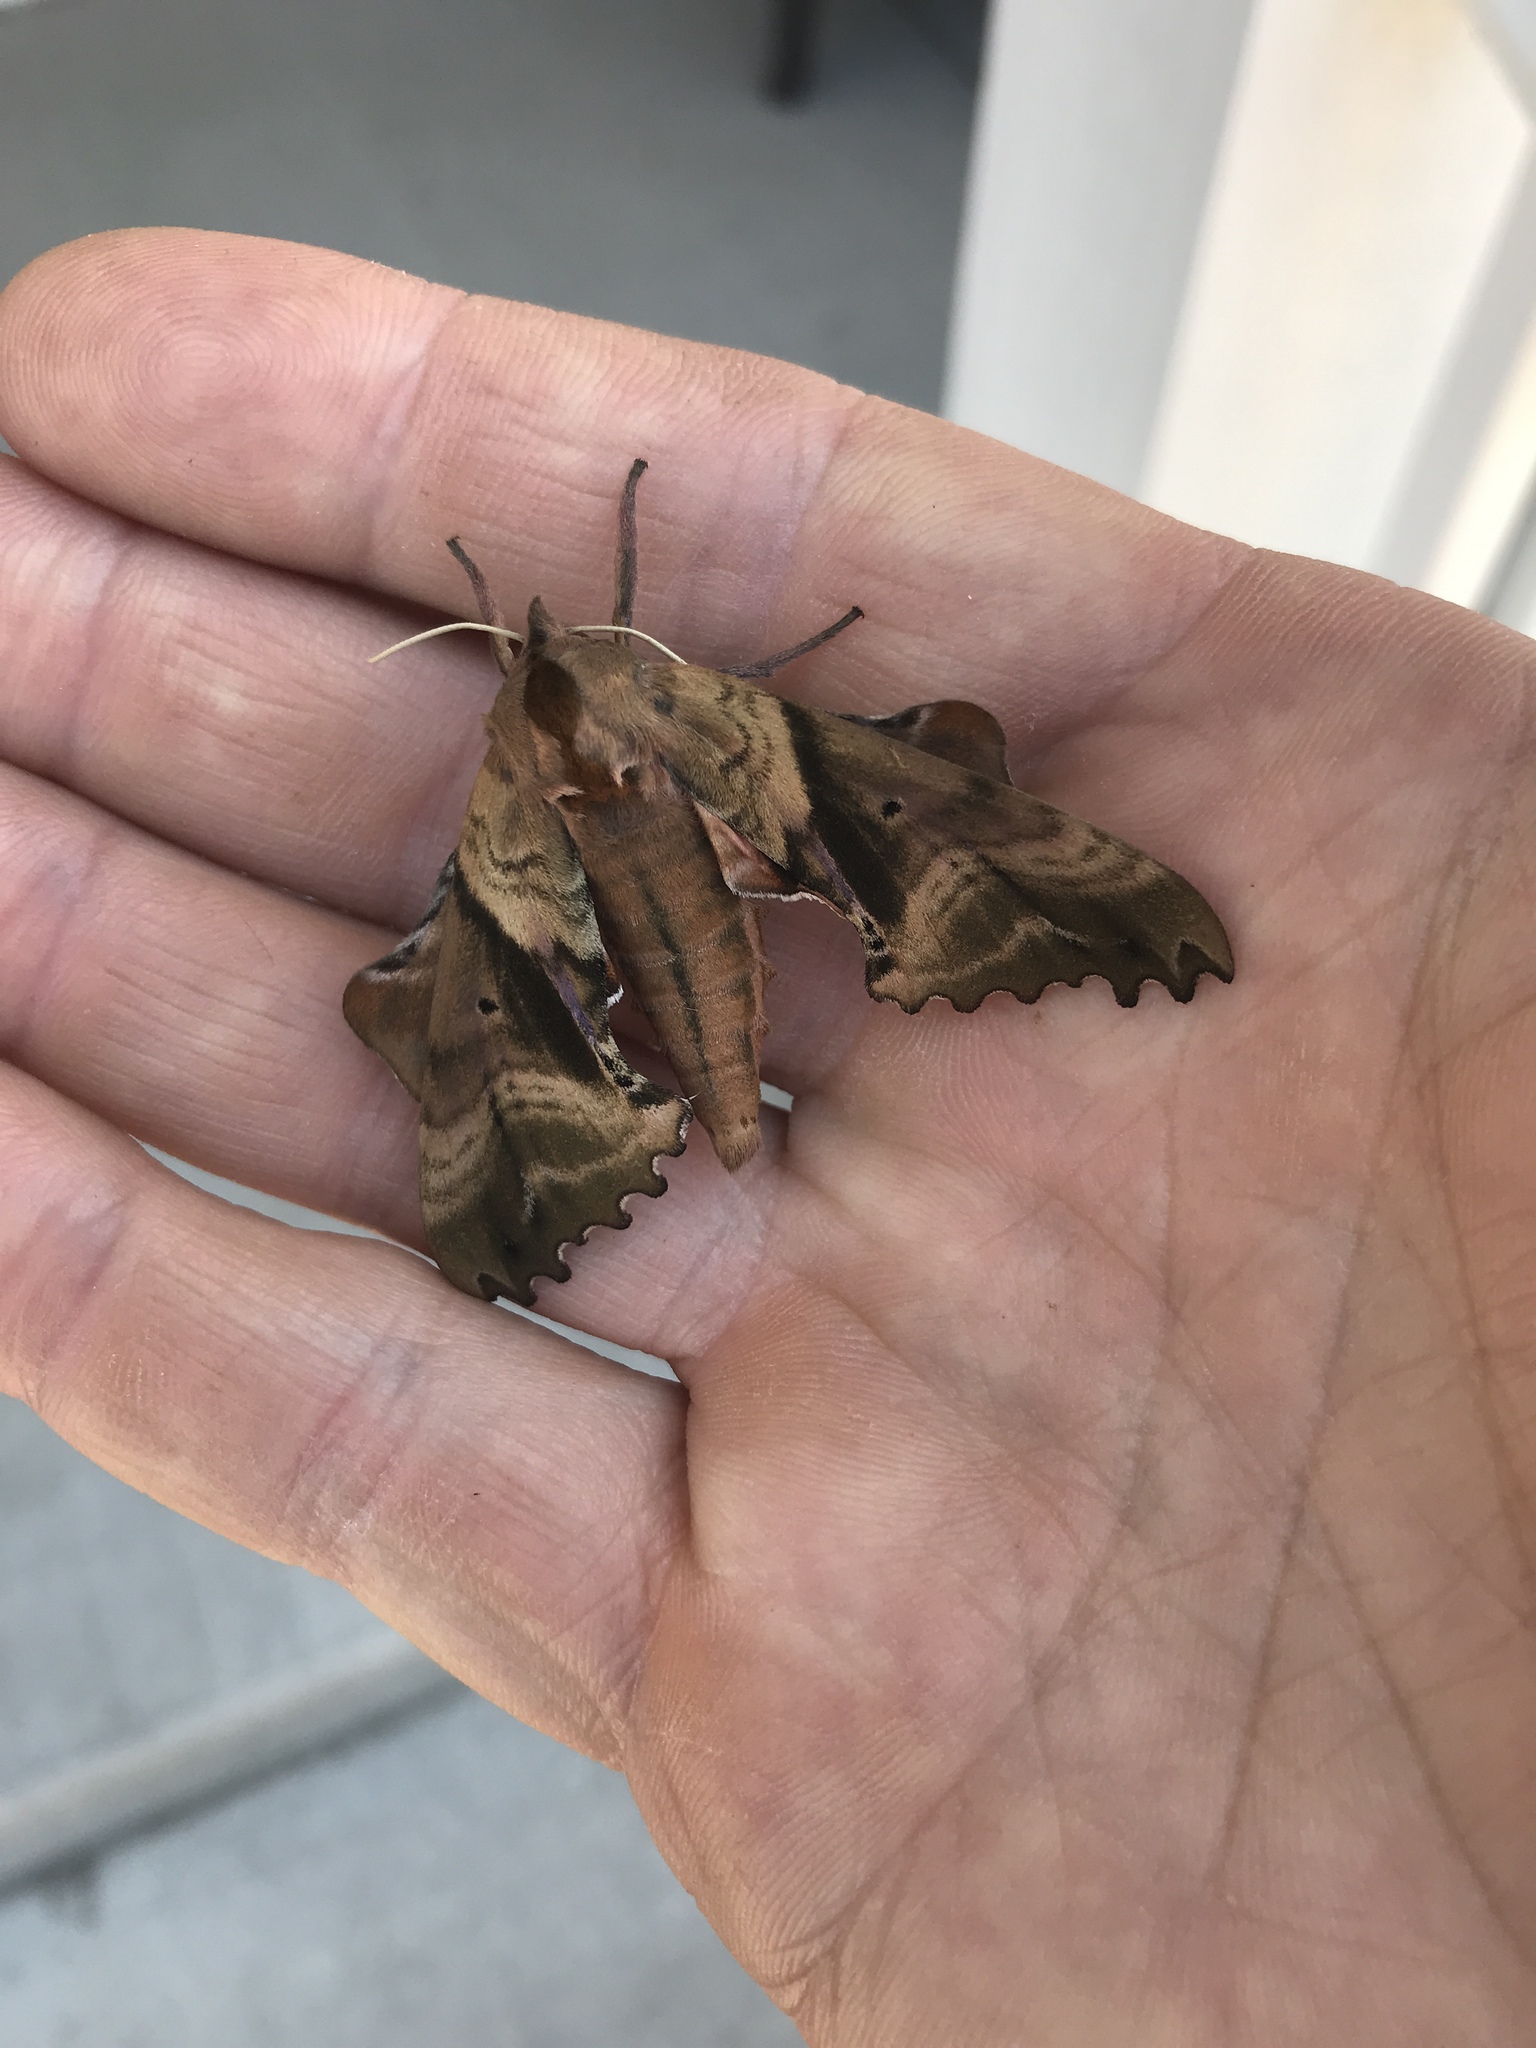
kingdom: Animalia
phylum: Arthropoda
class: Insecta
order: Lepidoptera
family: Sphingidae
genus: Paonias
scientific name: Paonias excaecata
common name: Blind-eyed sphinx
